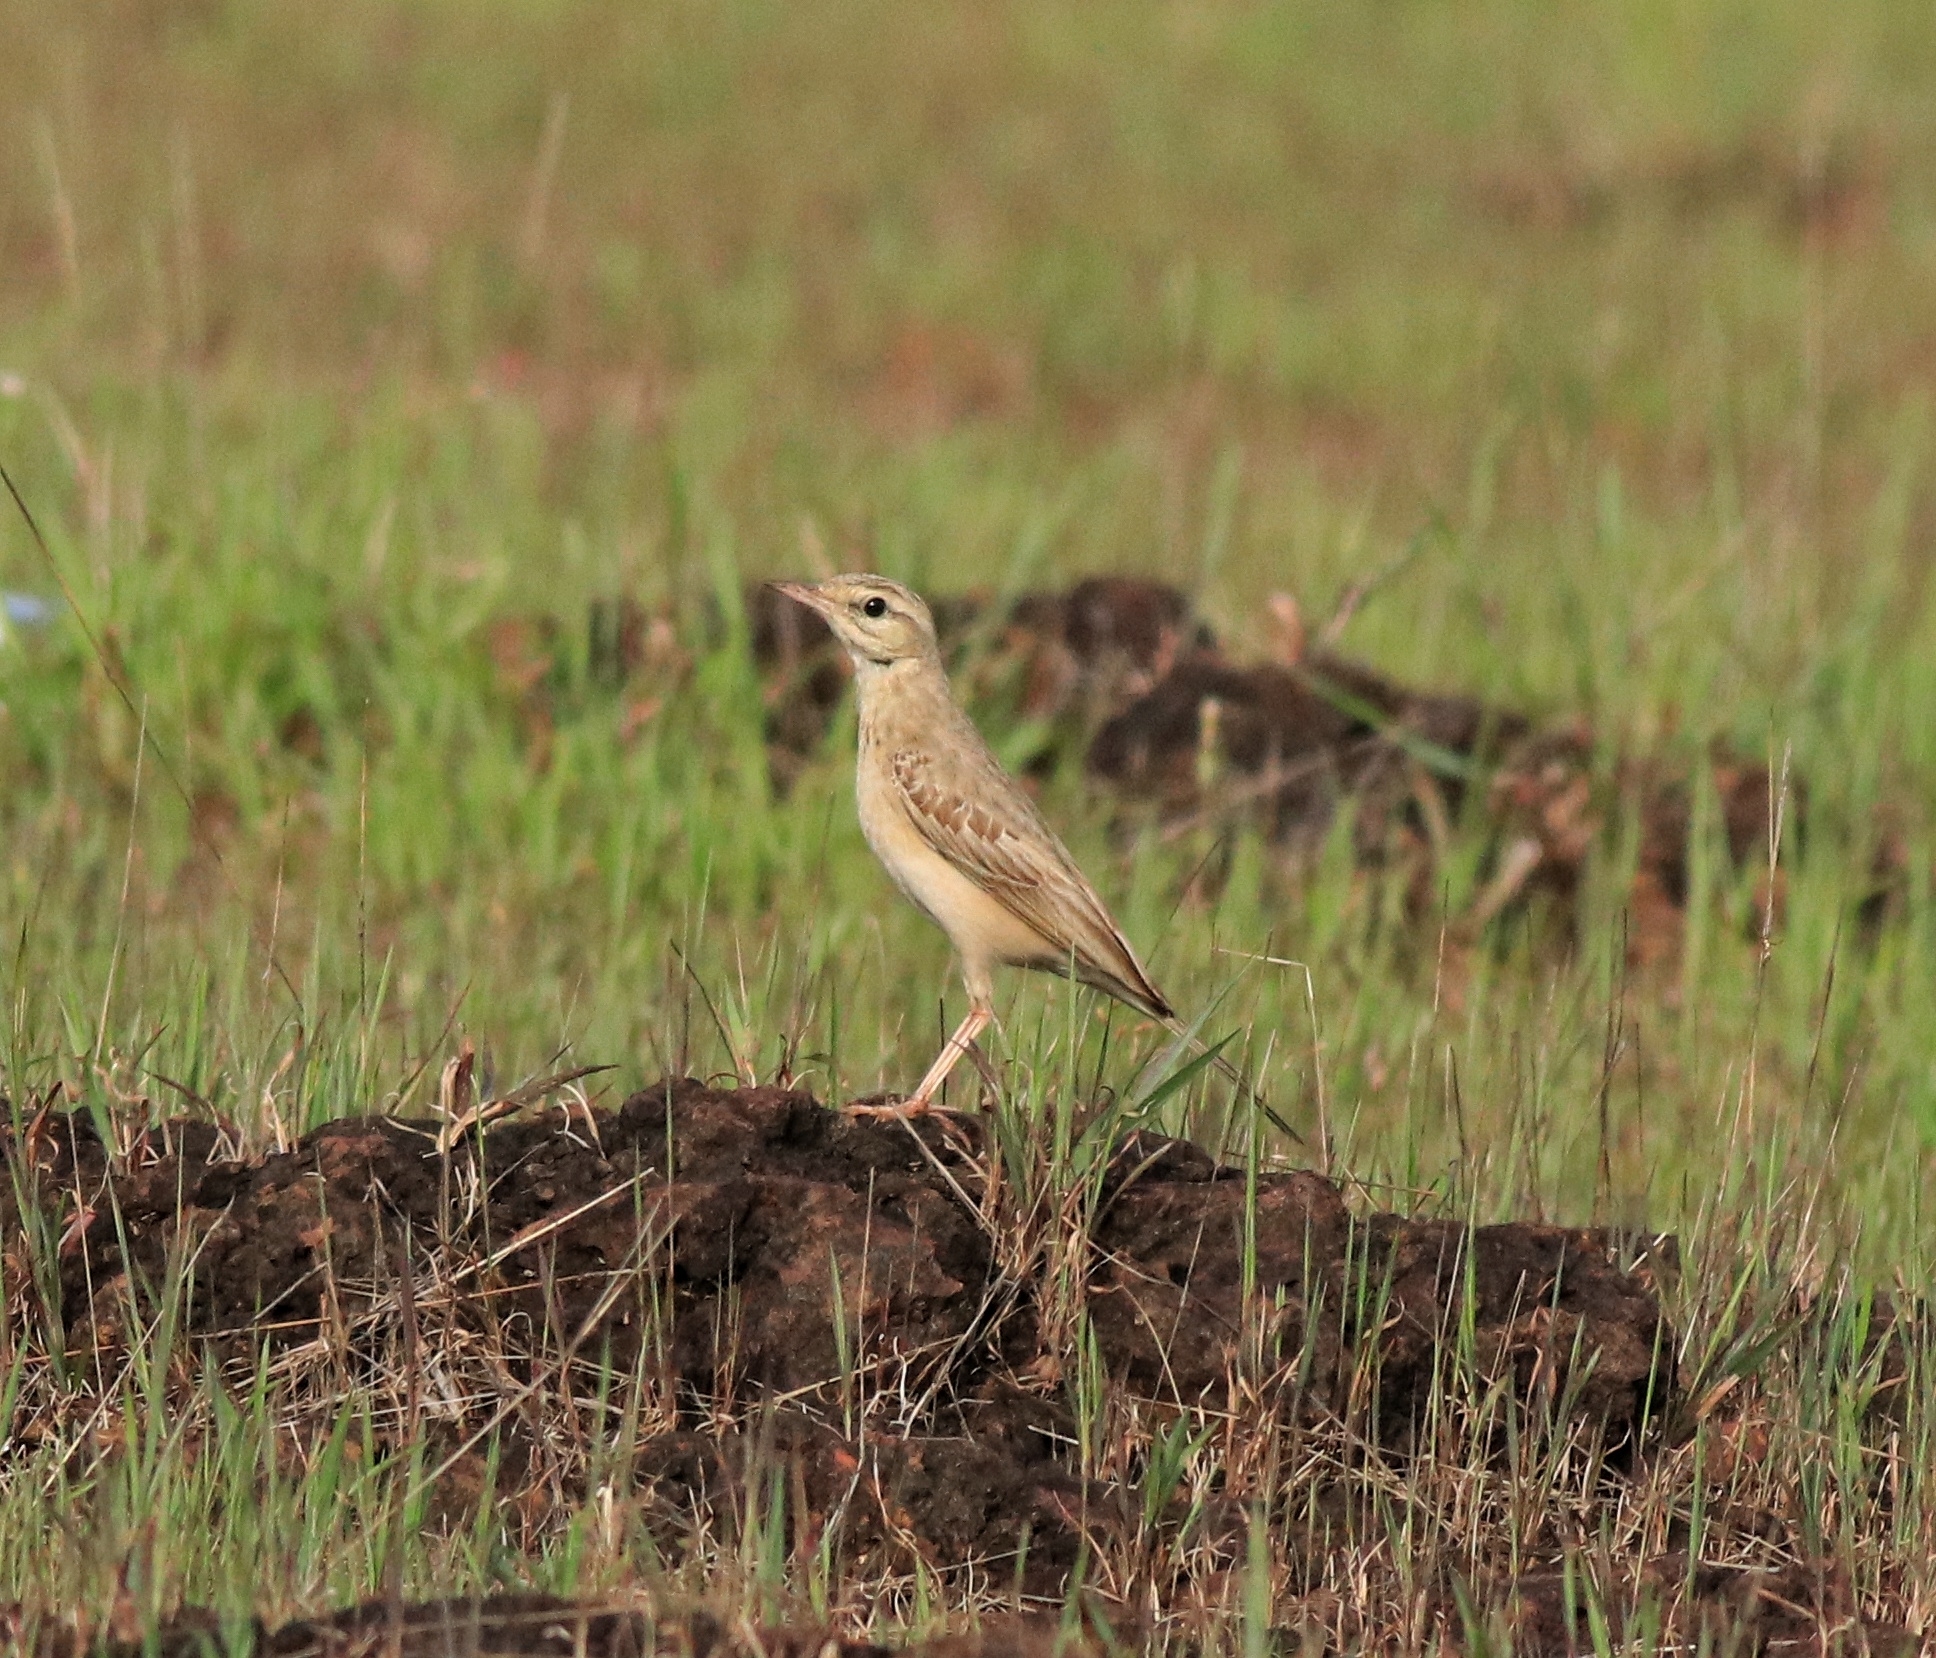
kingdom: Animalia
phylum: Chordata
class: Aves
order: Passeriformes
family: Motacillidae
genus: Anthus
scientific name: Anthus campestris
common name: Tawny pipit
